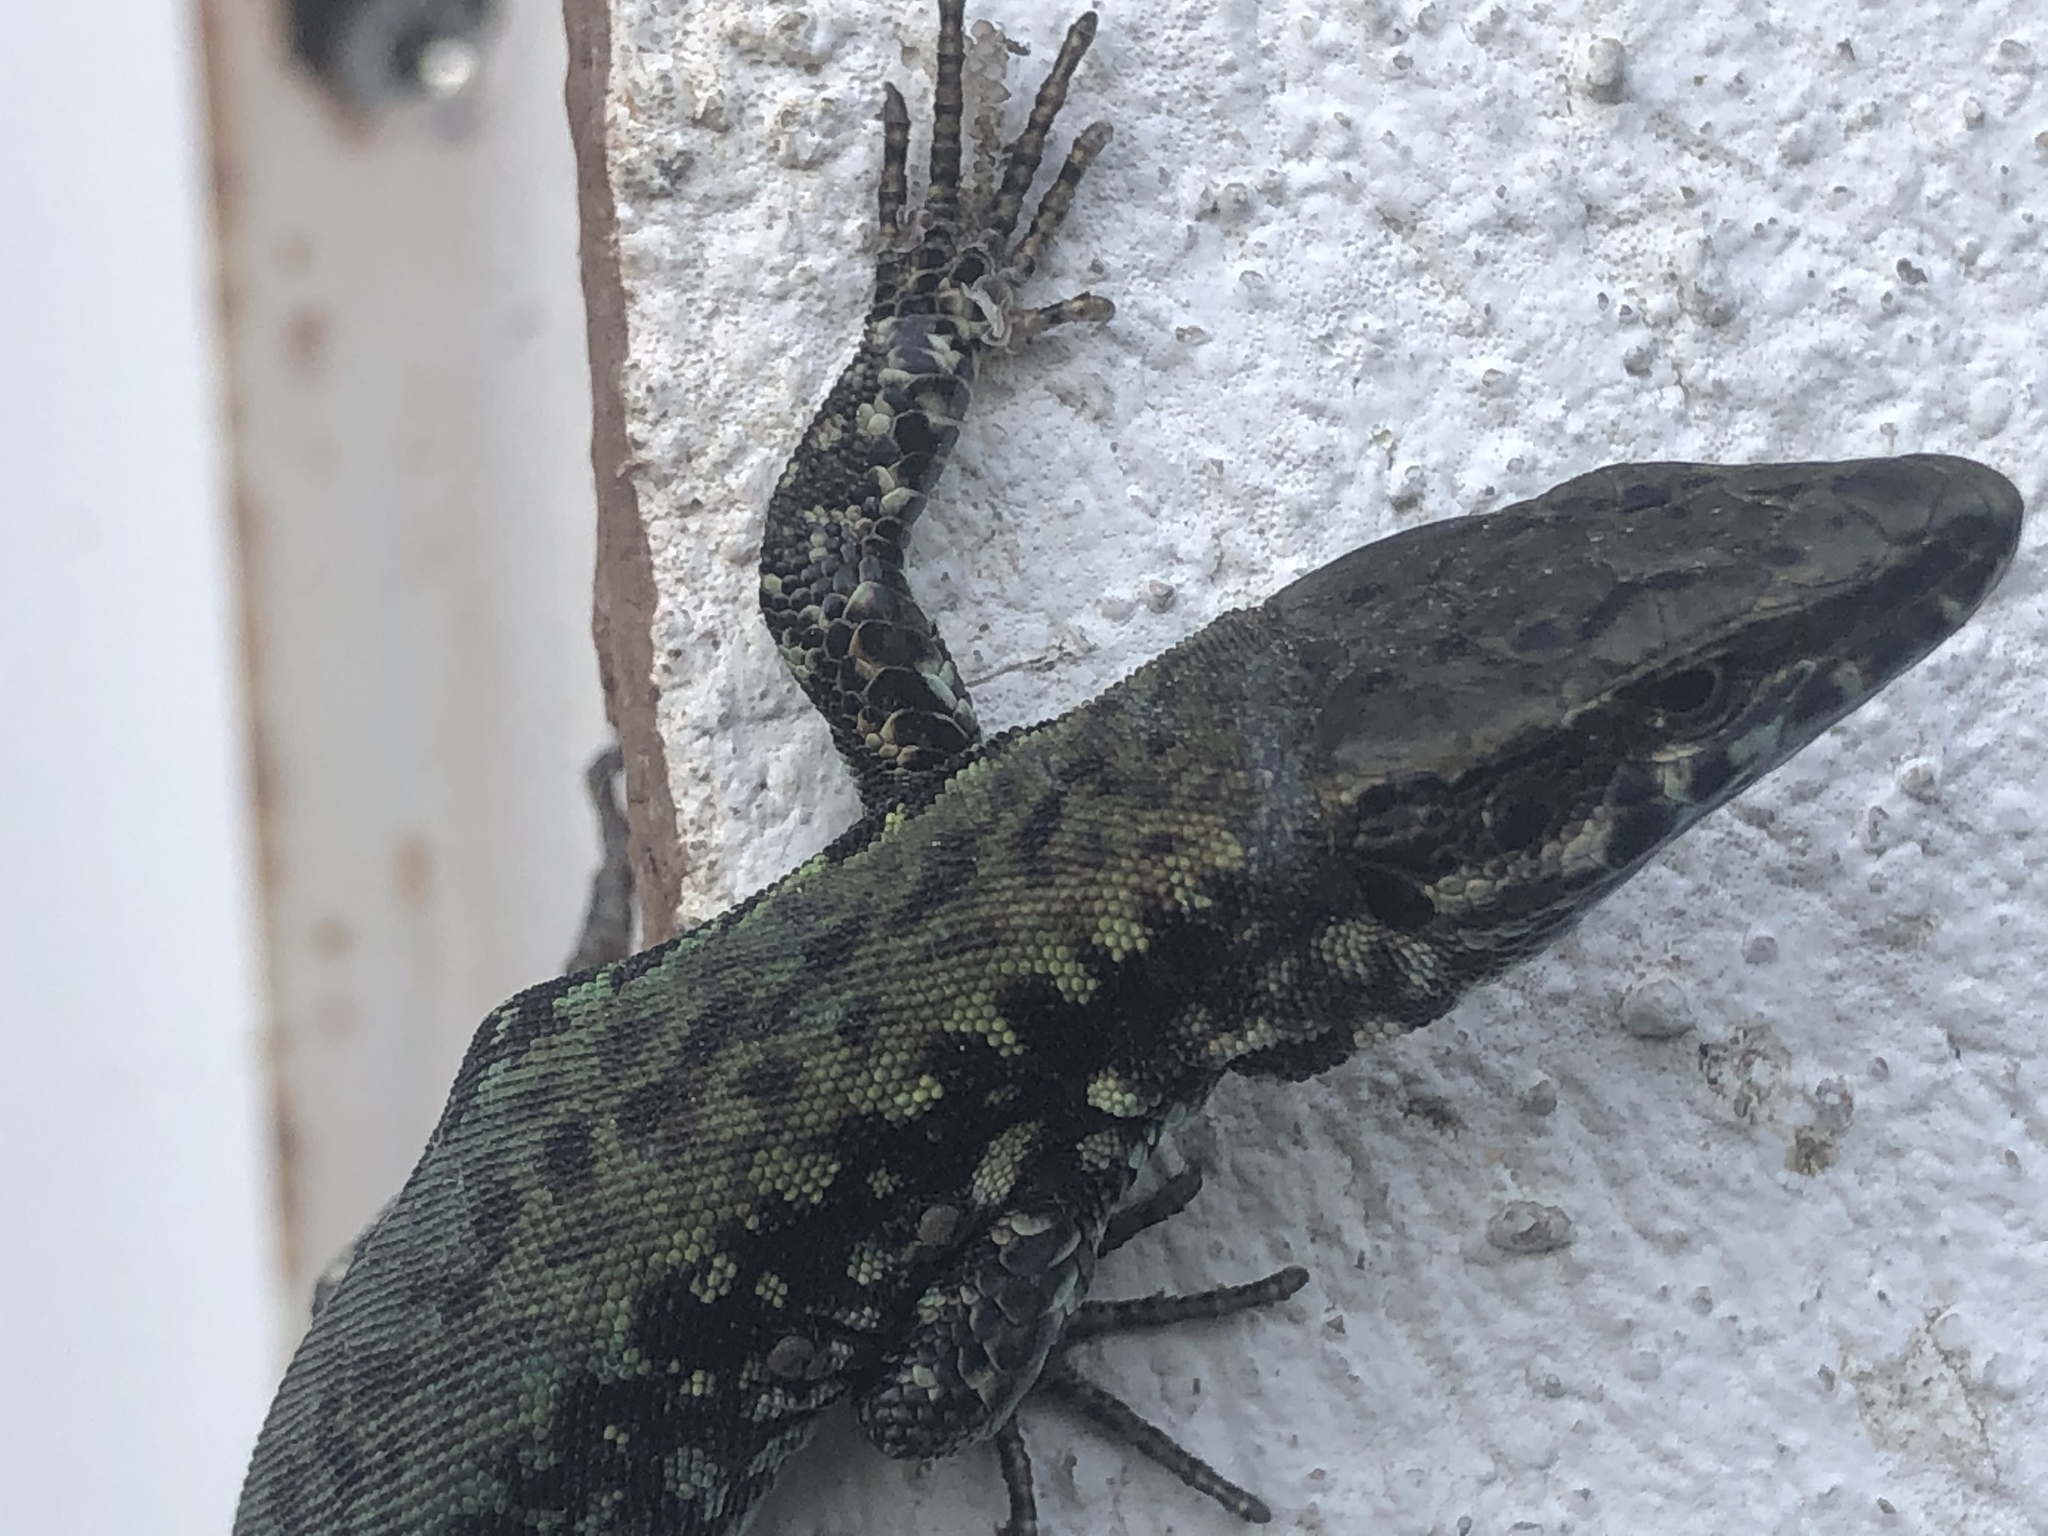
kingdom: Animalia
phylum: Chordata
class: Squamata
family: Lacertidae
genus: Podarcis
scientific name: Podarcis muralis
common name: Common wall lizard
